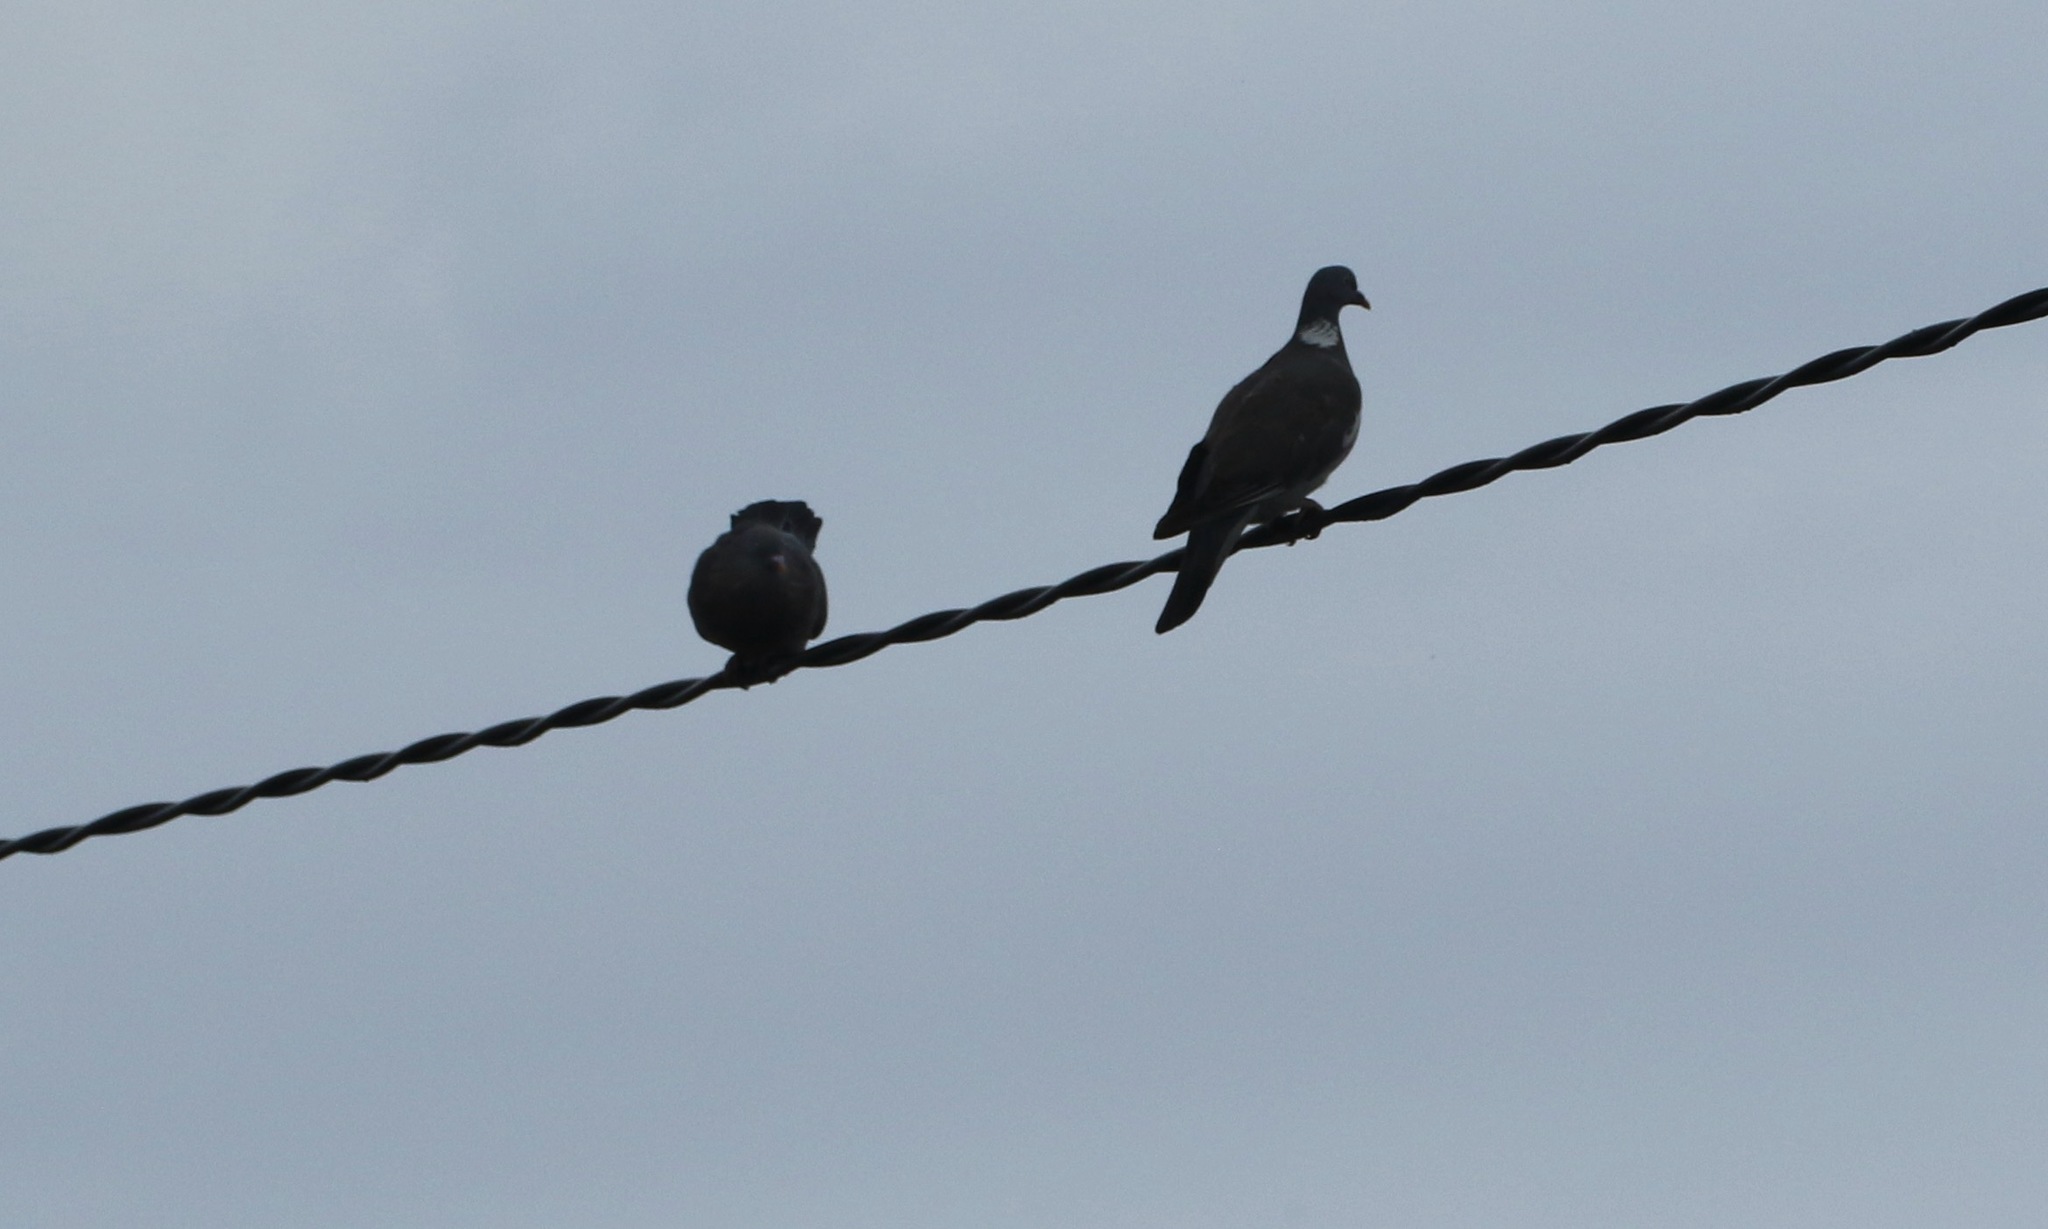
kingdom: Animalia
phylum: Chordata
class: Aves
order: Columbiformes
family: Columbidae
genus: Columba
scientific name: Columba palumbus
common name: Common wood pigeon
